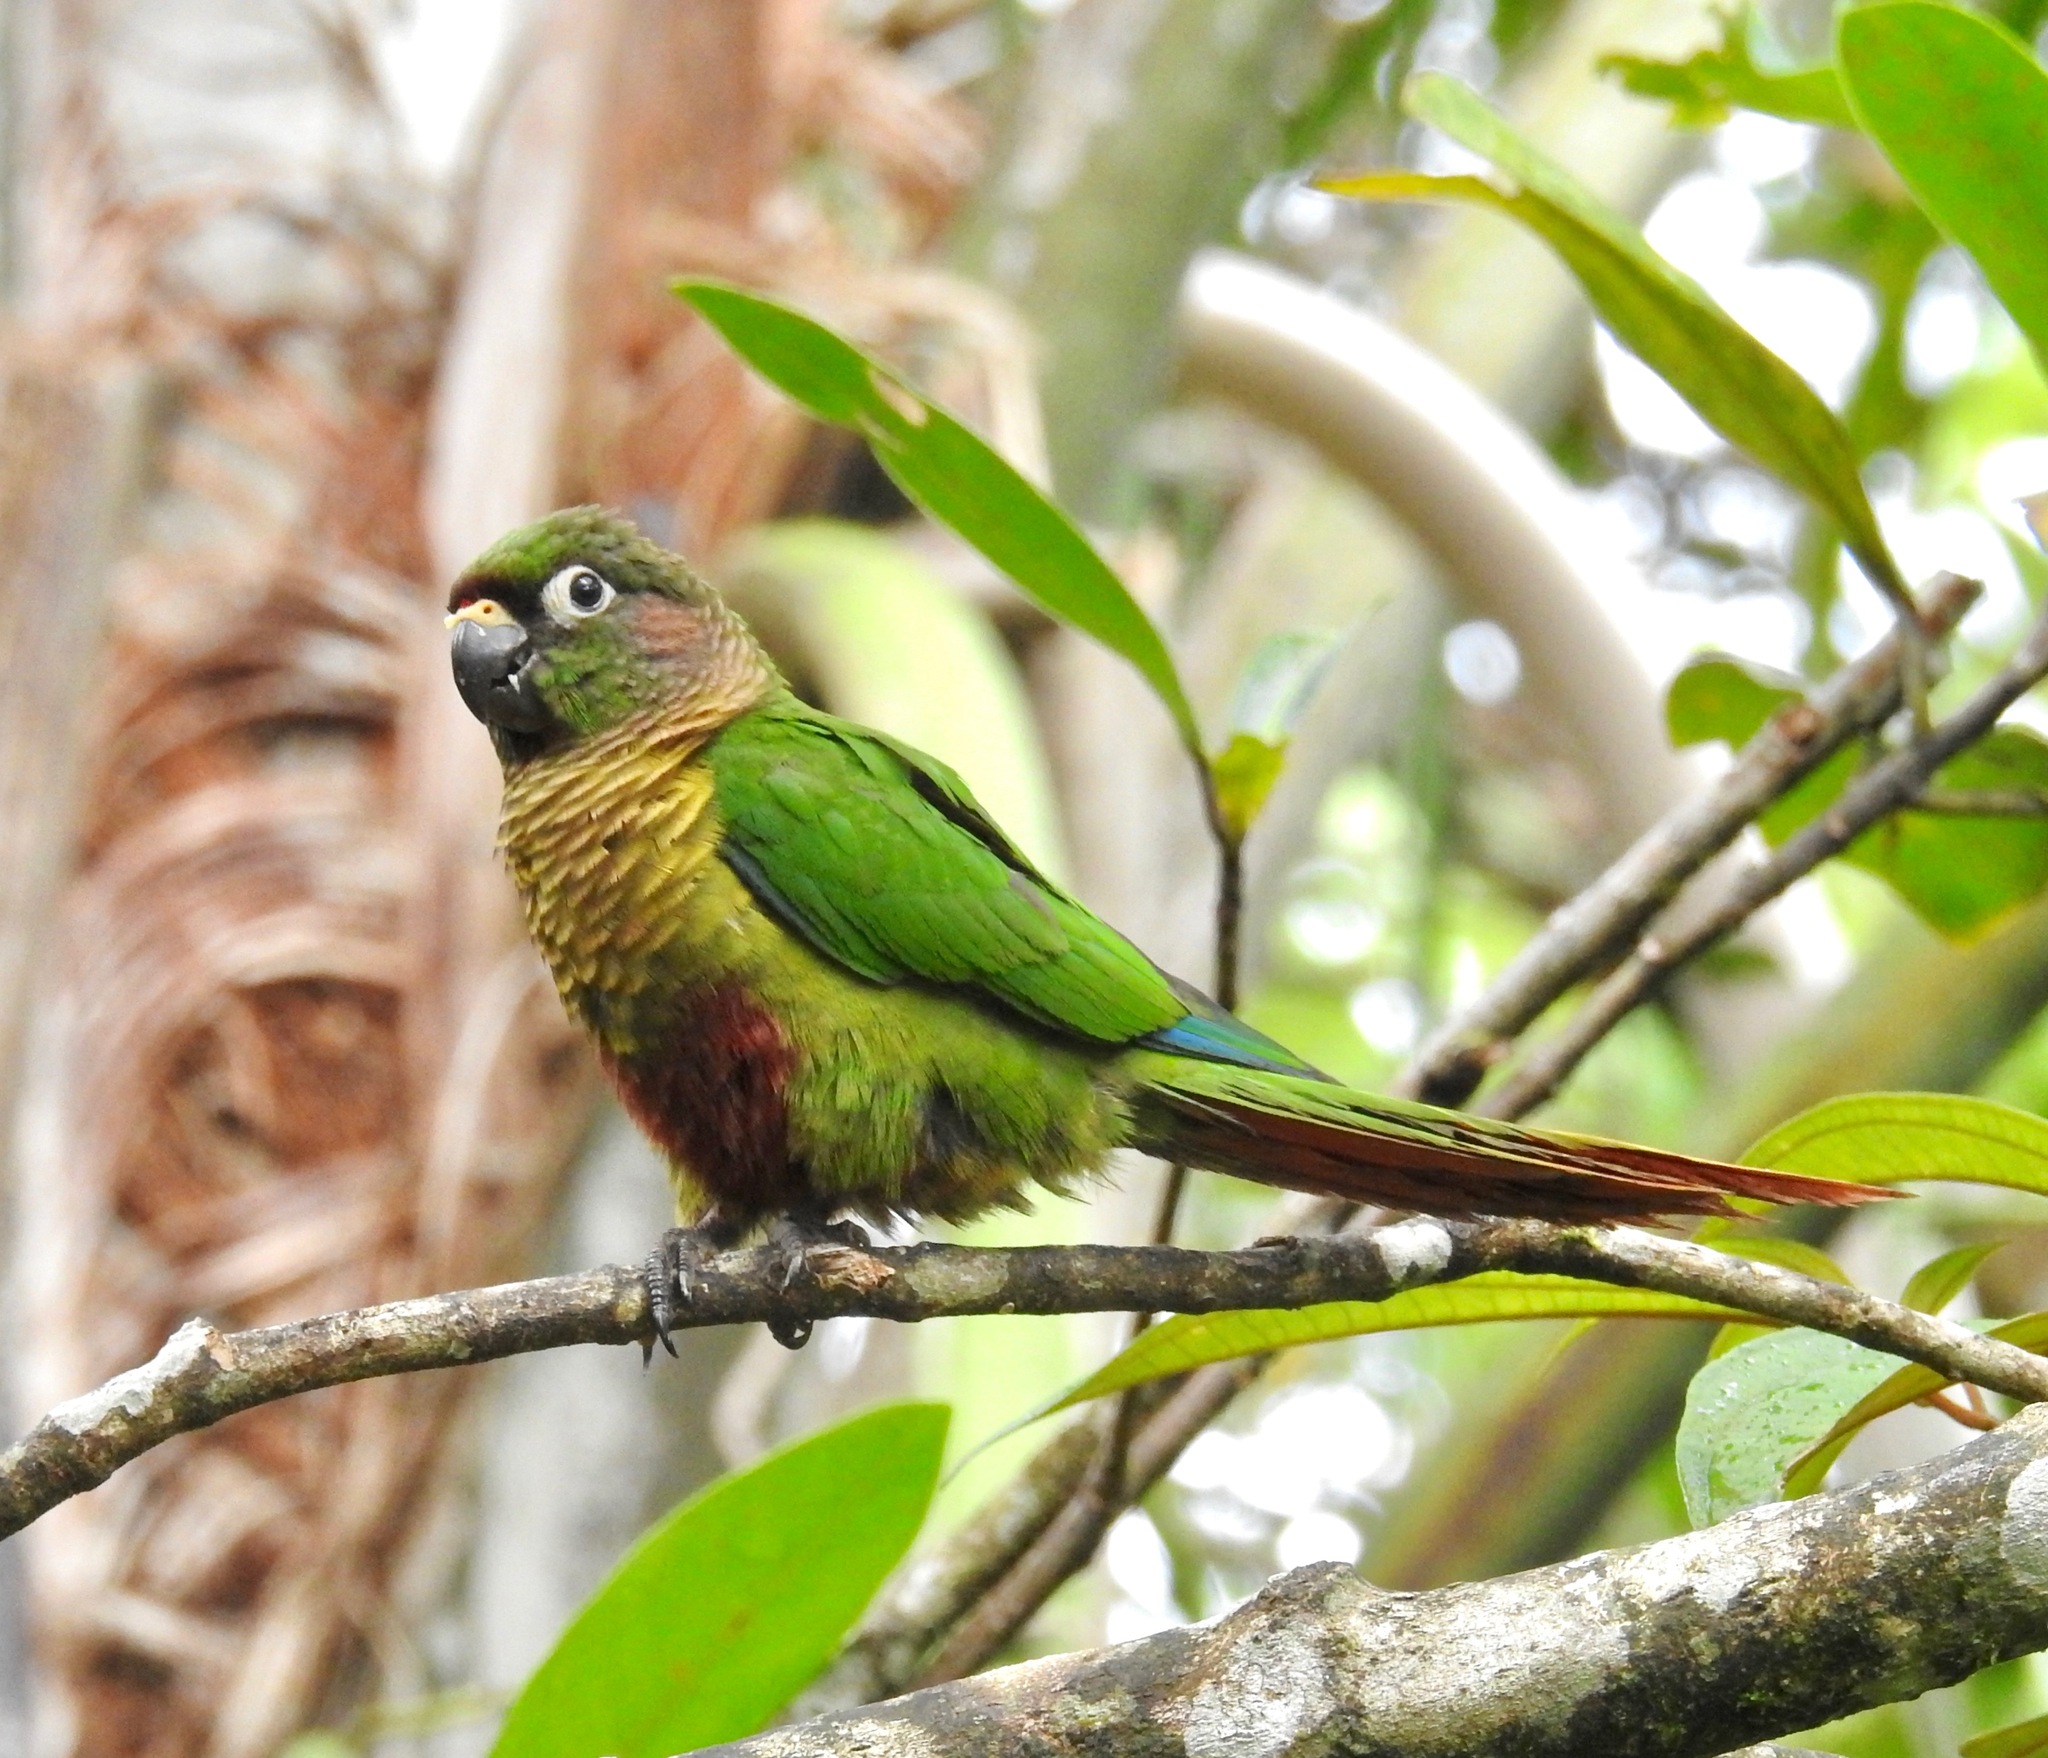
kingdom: Animalia
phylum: Chordata
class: Aves
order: Psittaciformes
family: Psittacidae
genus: Pyrrhura
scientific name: Pyrrhura frontalis
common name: Maroon-bellied parakeet
